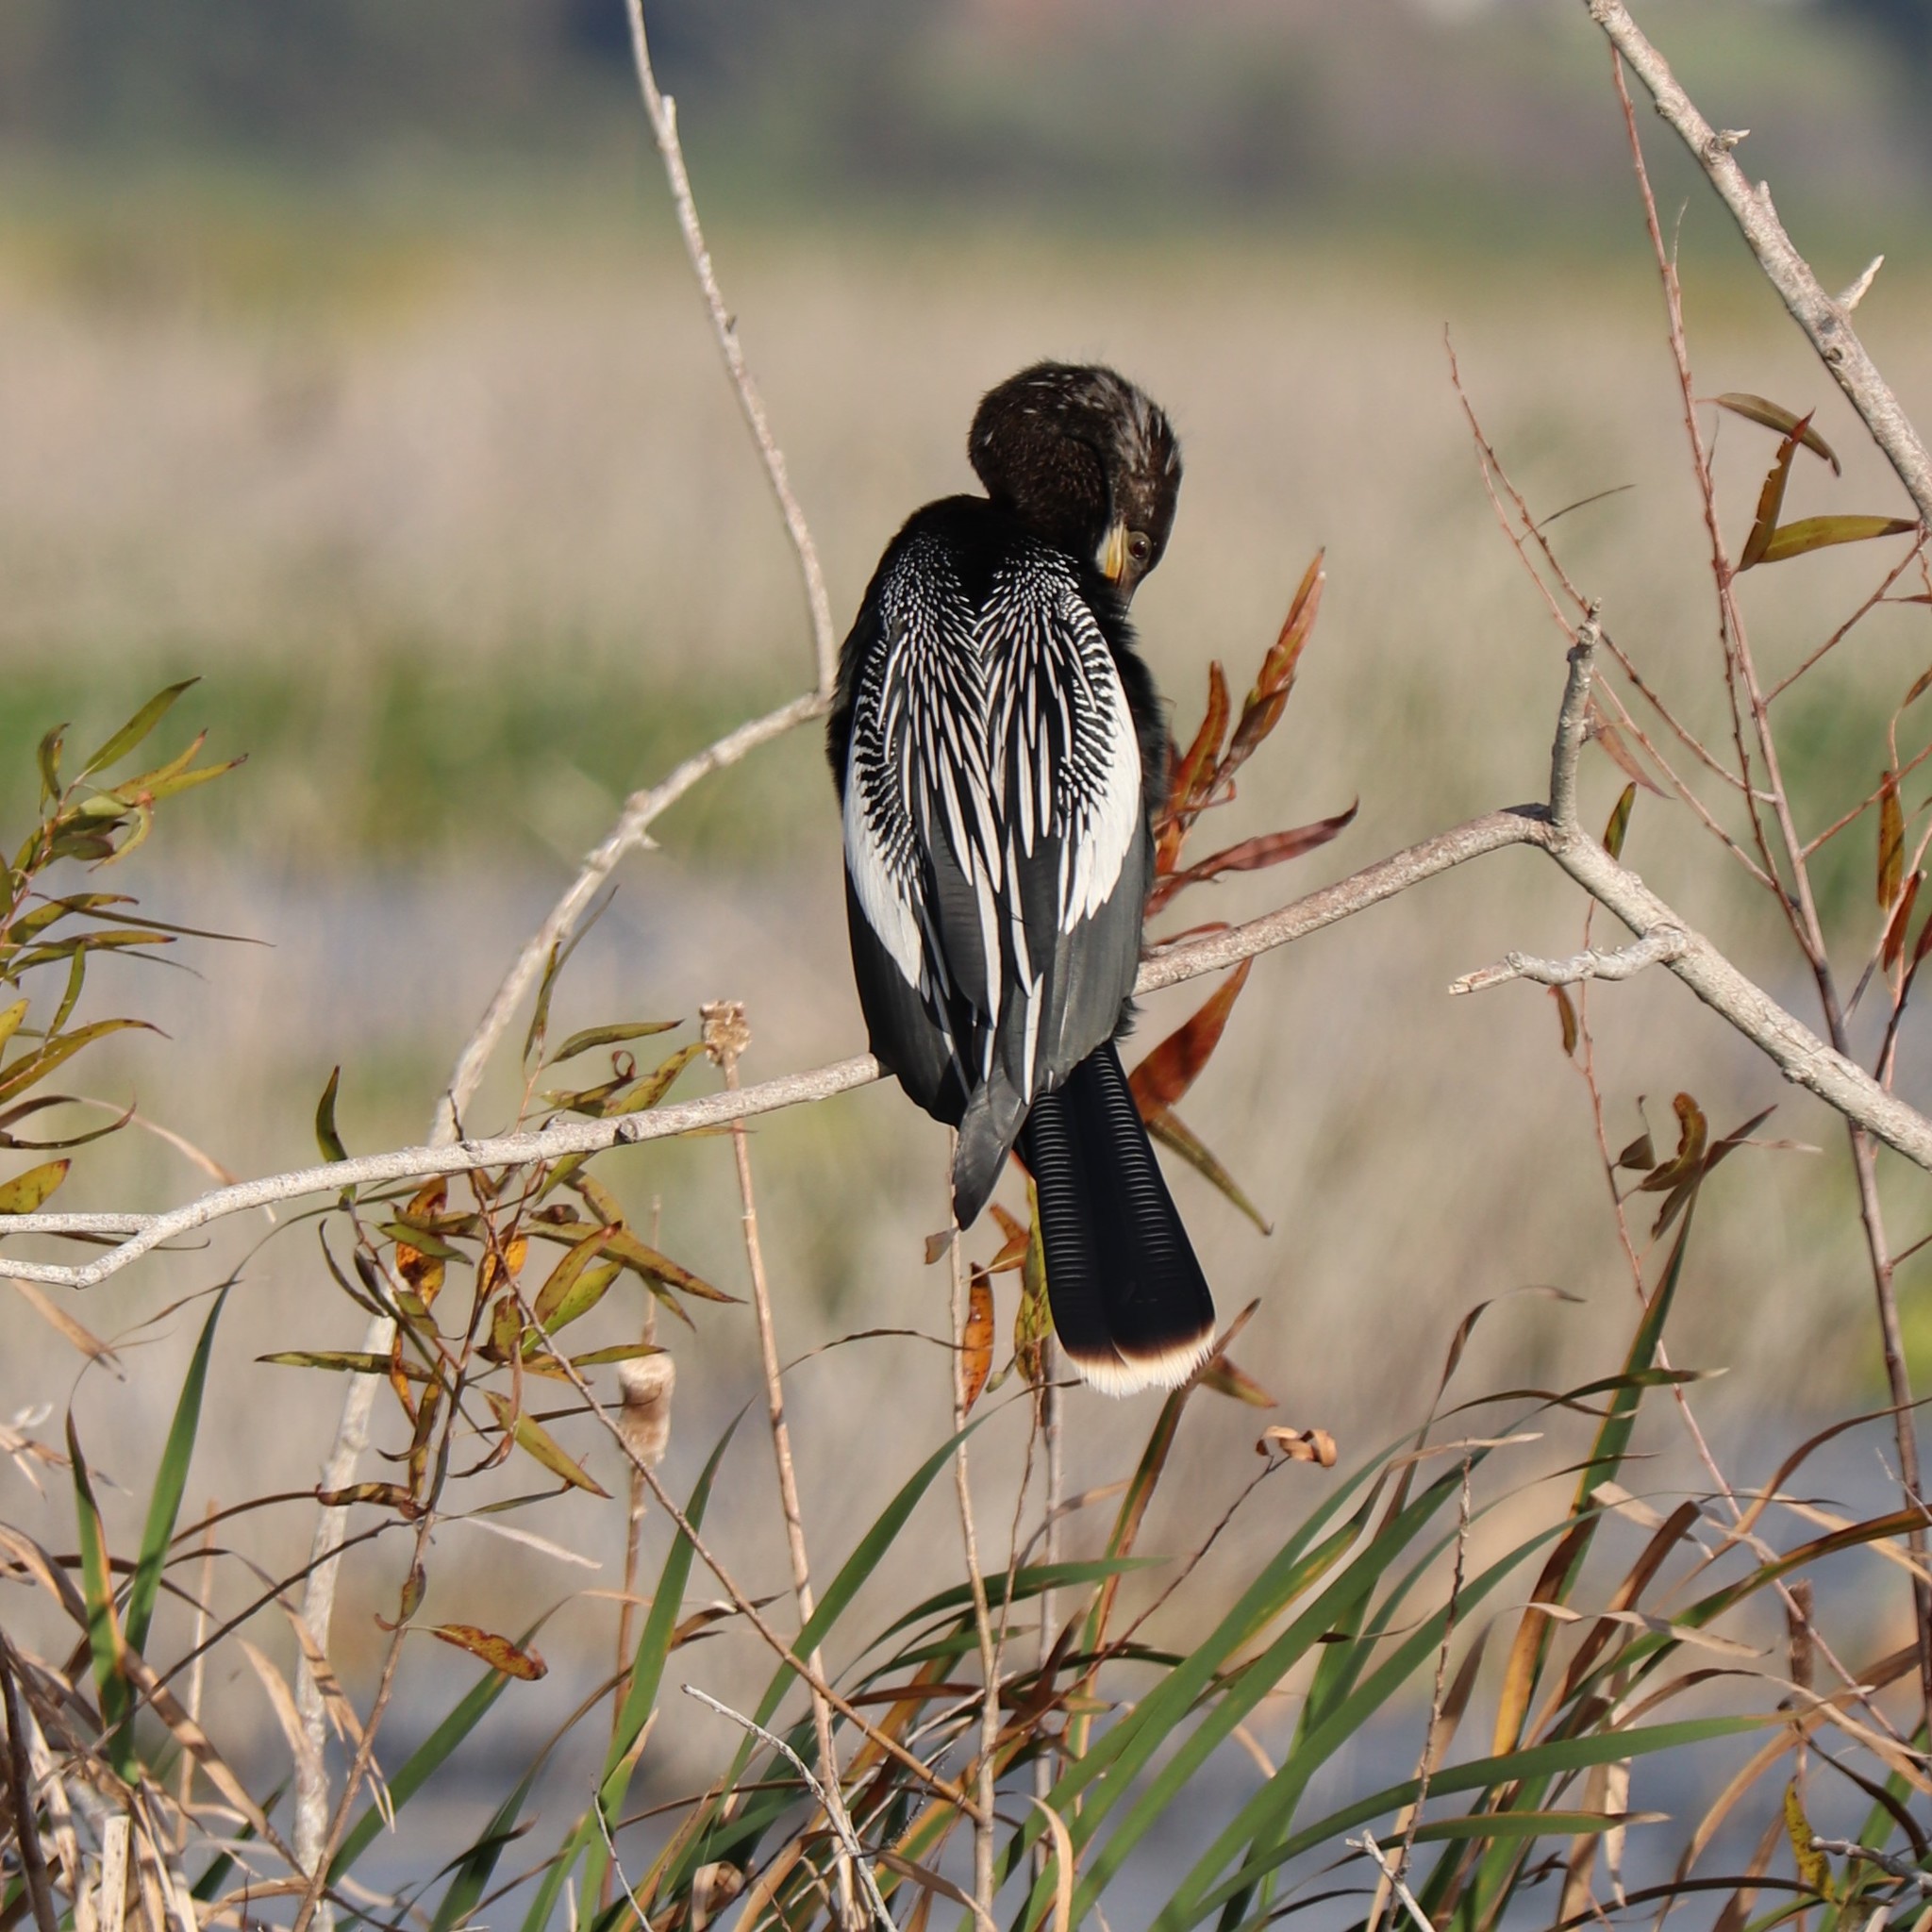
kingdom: Animalia
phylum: Chordata
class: Aves
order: Suliformes
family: Anhingidae
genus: Anhinga
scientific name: Anhinga anhinga
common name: Anhinga
